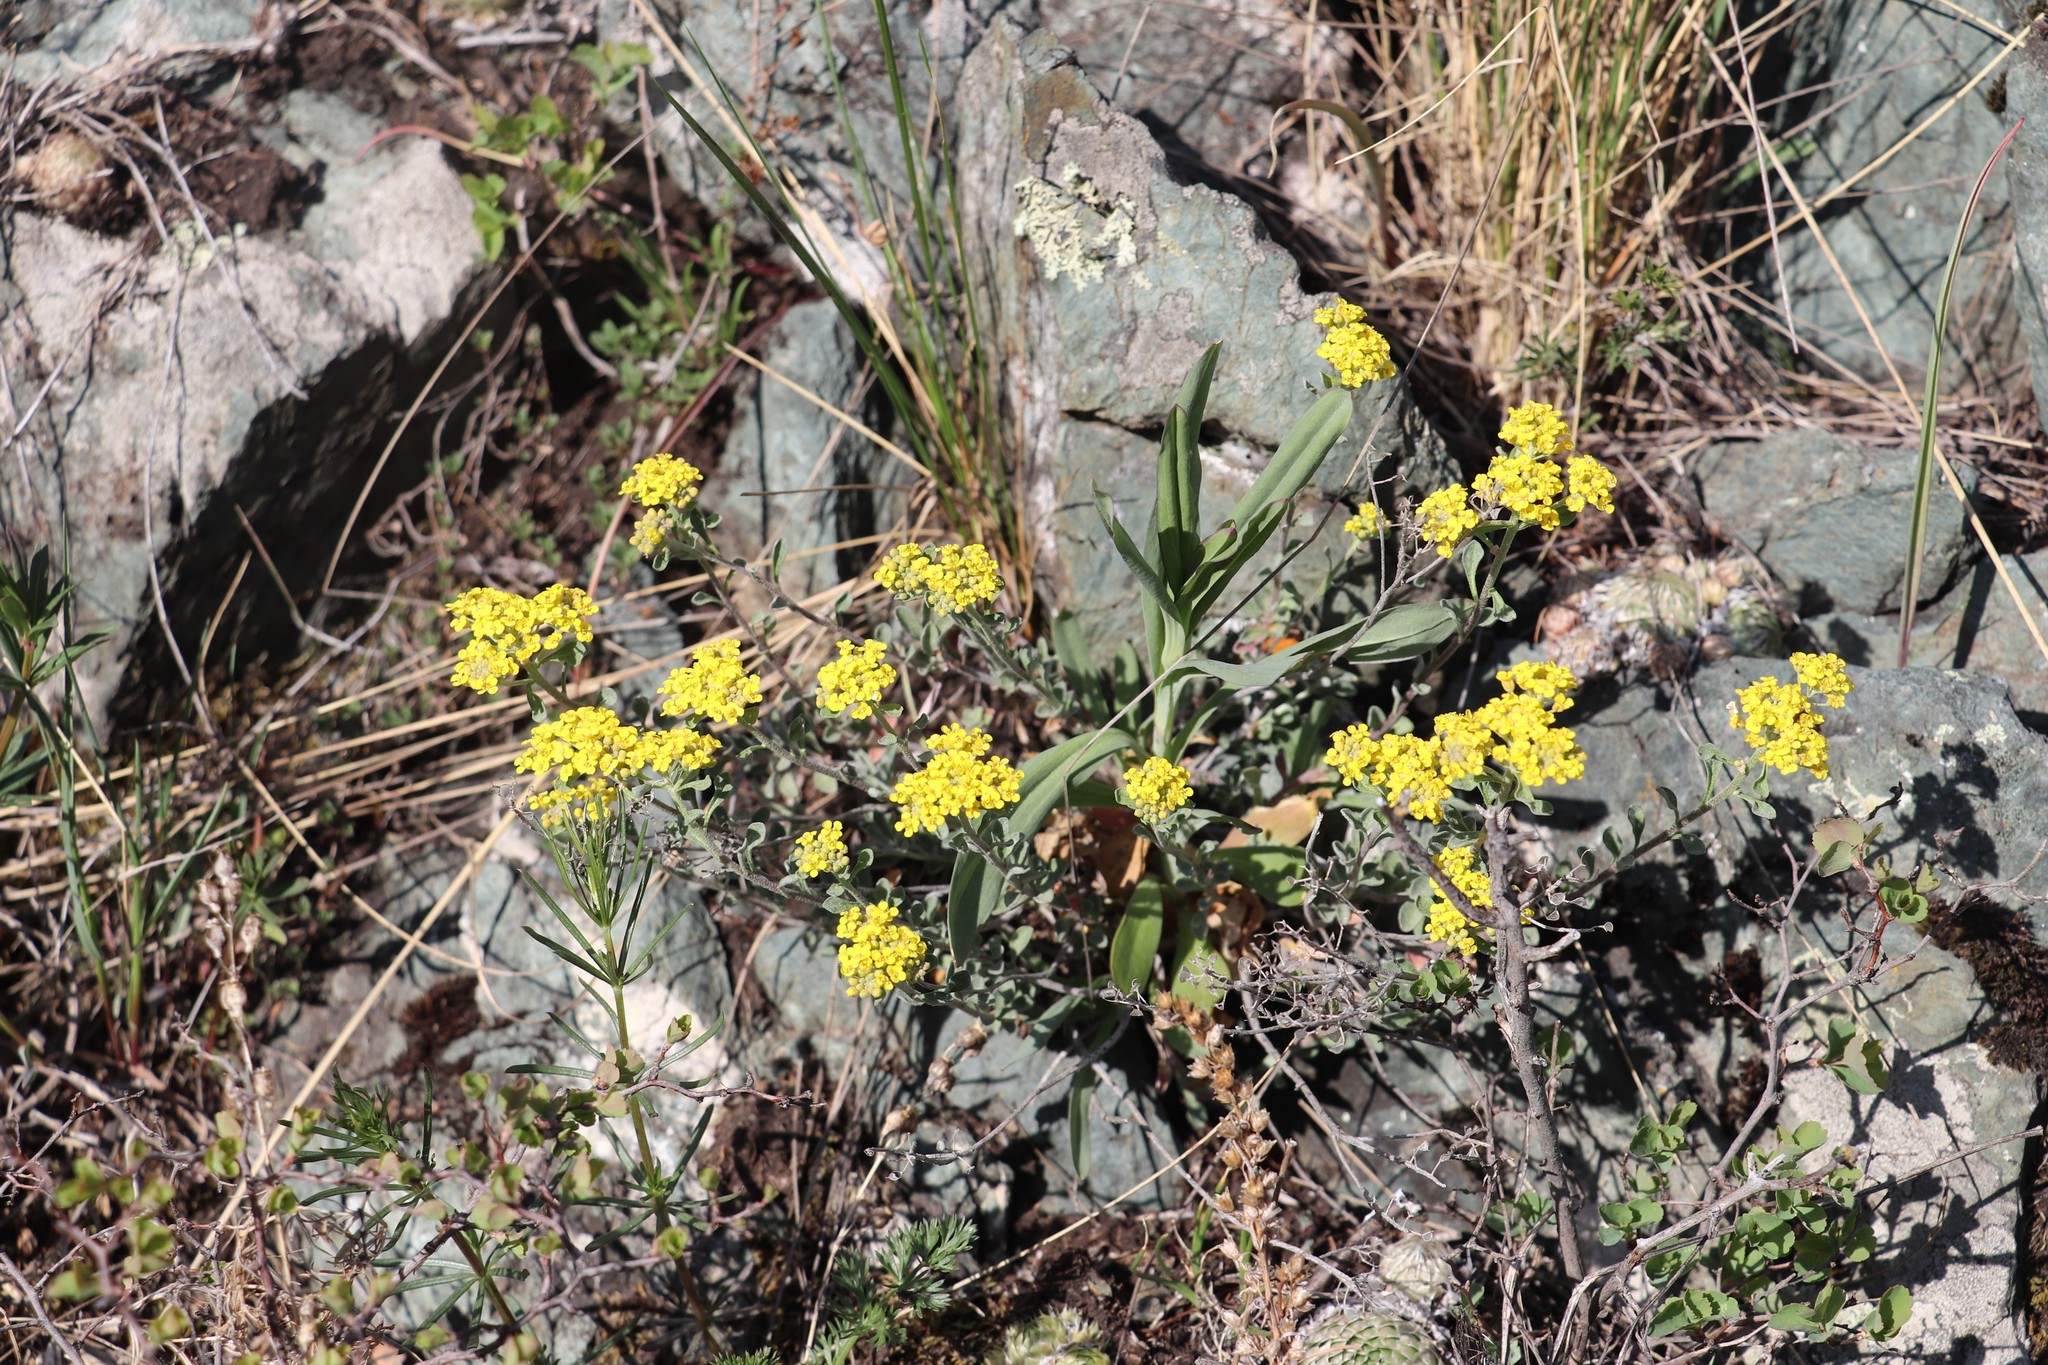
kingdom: Plantae
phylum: Tracheophyta
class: Magnoliopsida
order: Brassicales
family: Brassicaceae
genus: Odontarrhena
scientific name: Odontarrhena obovata
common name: American alyssum
